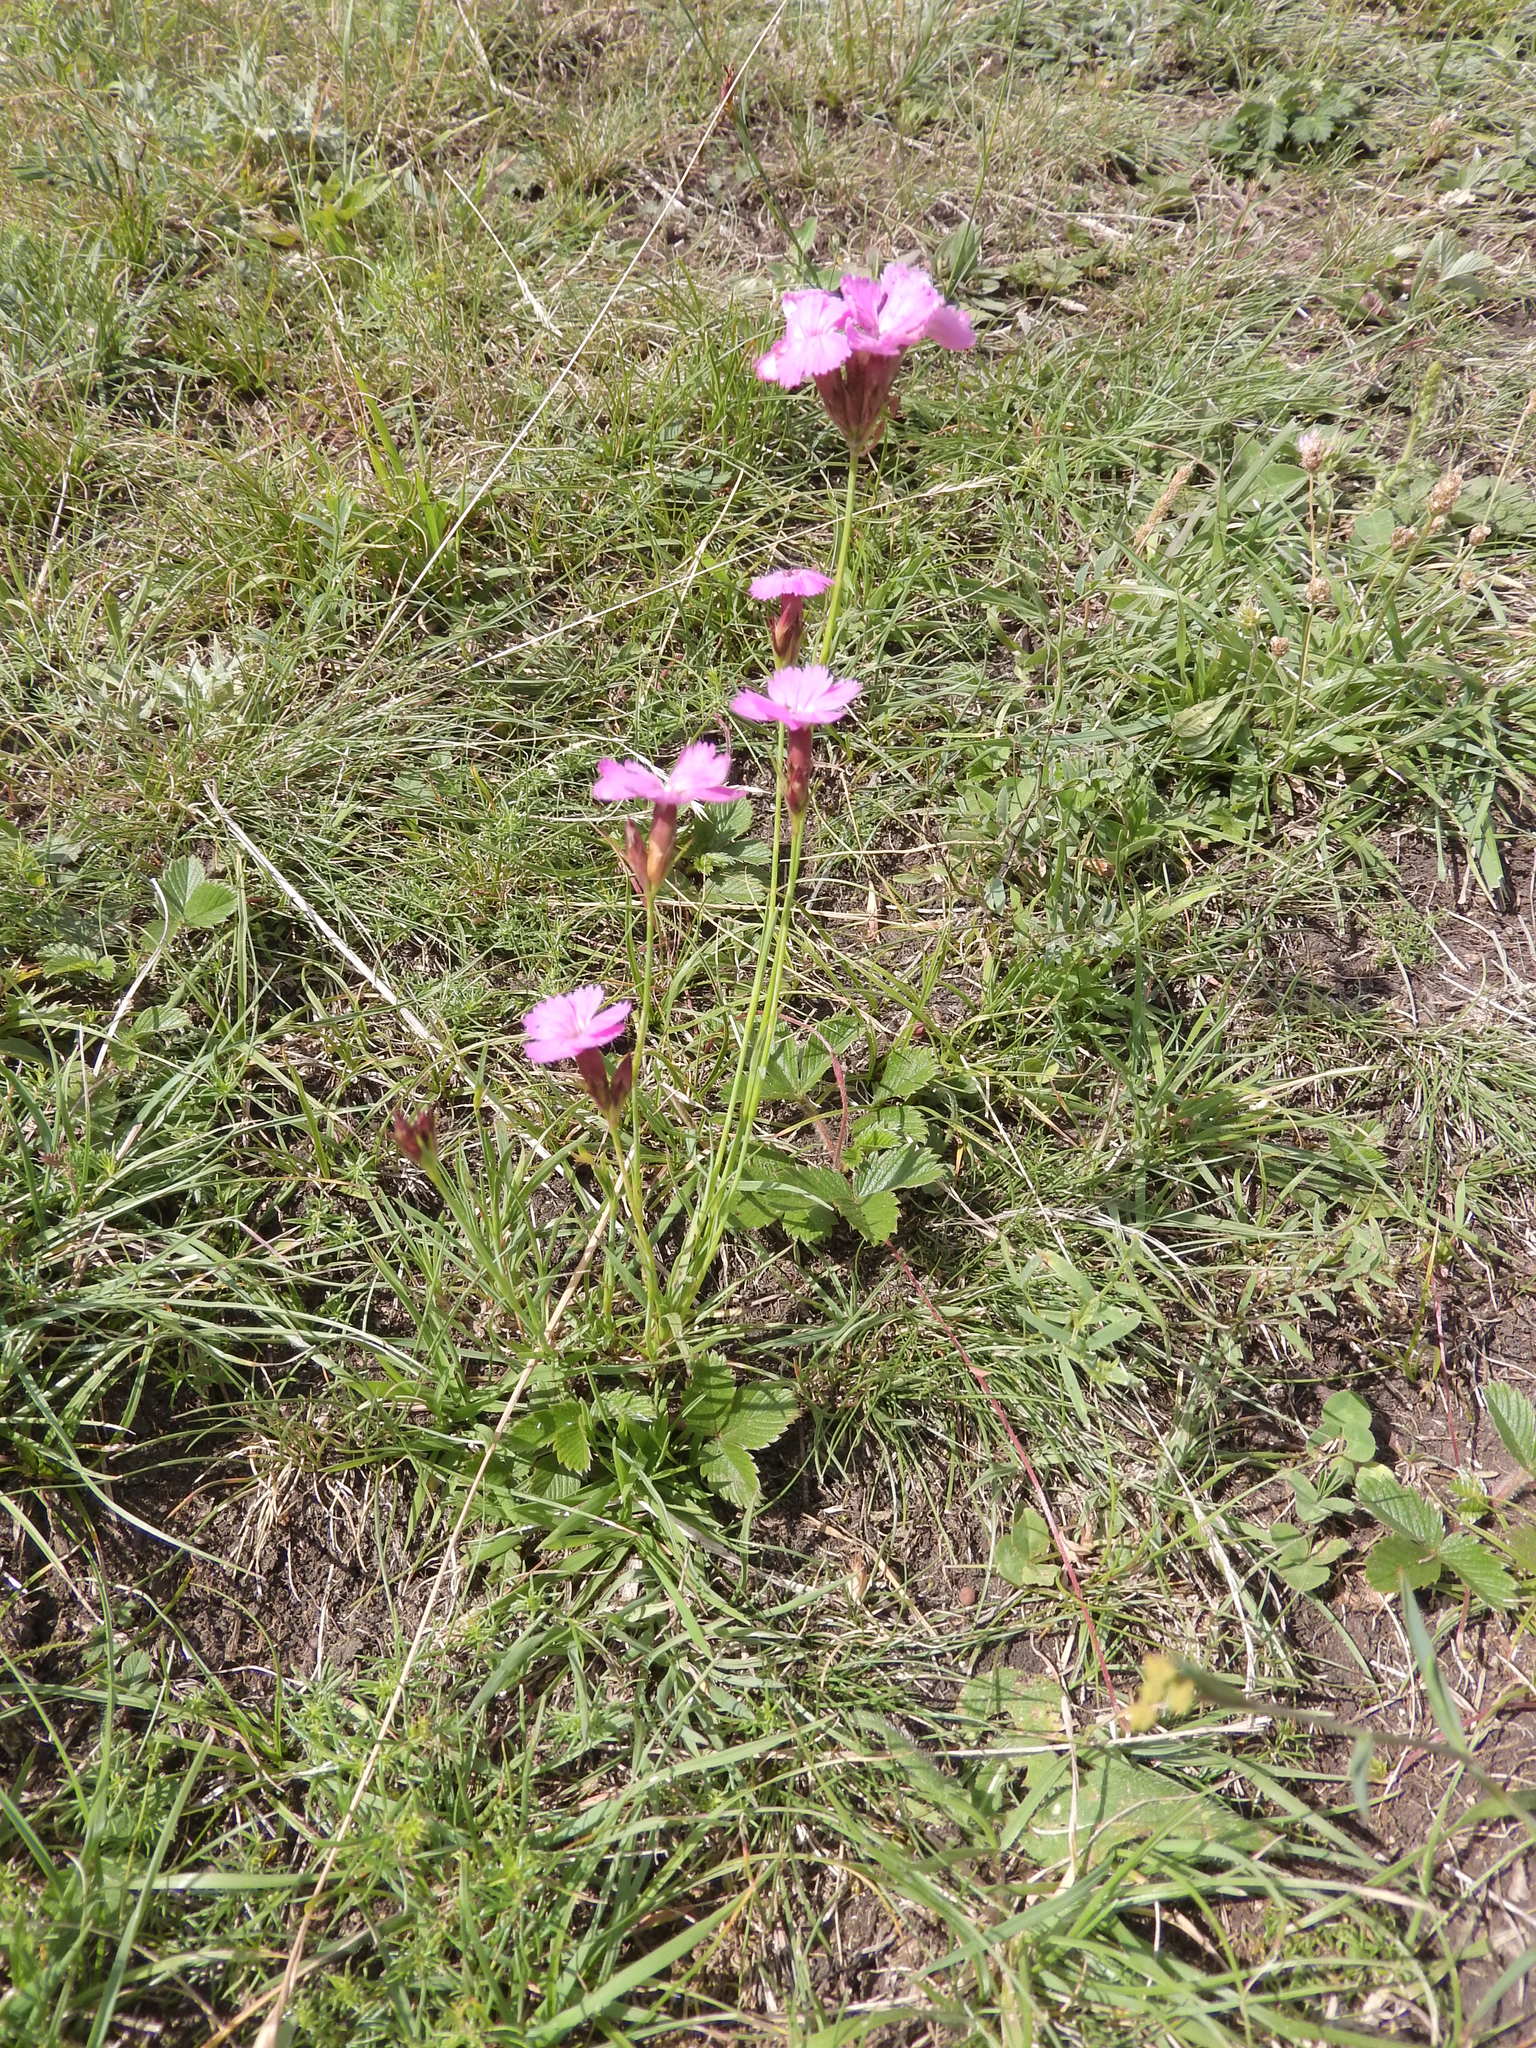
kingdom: Plantae
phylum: Tracheophyta
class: Magnoliopsida
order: Caryophyllales
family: Caryophyllaceae
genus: Dianthus
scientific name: Dianthus carthusianorum
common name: Carthusian pink
